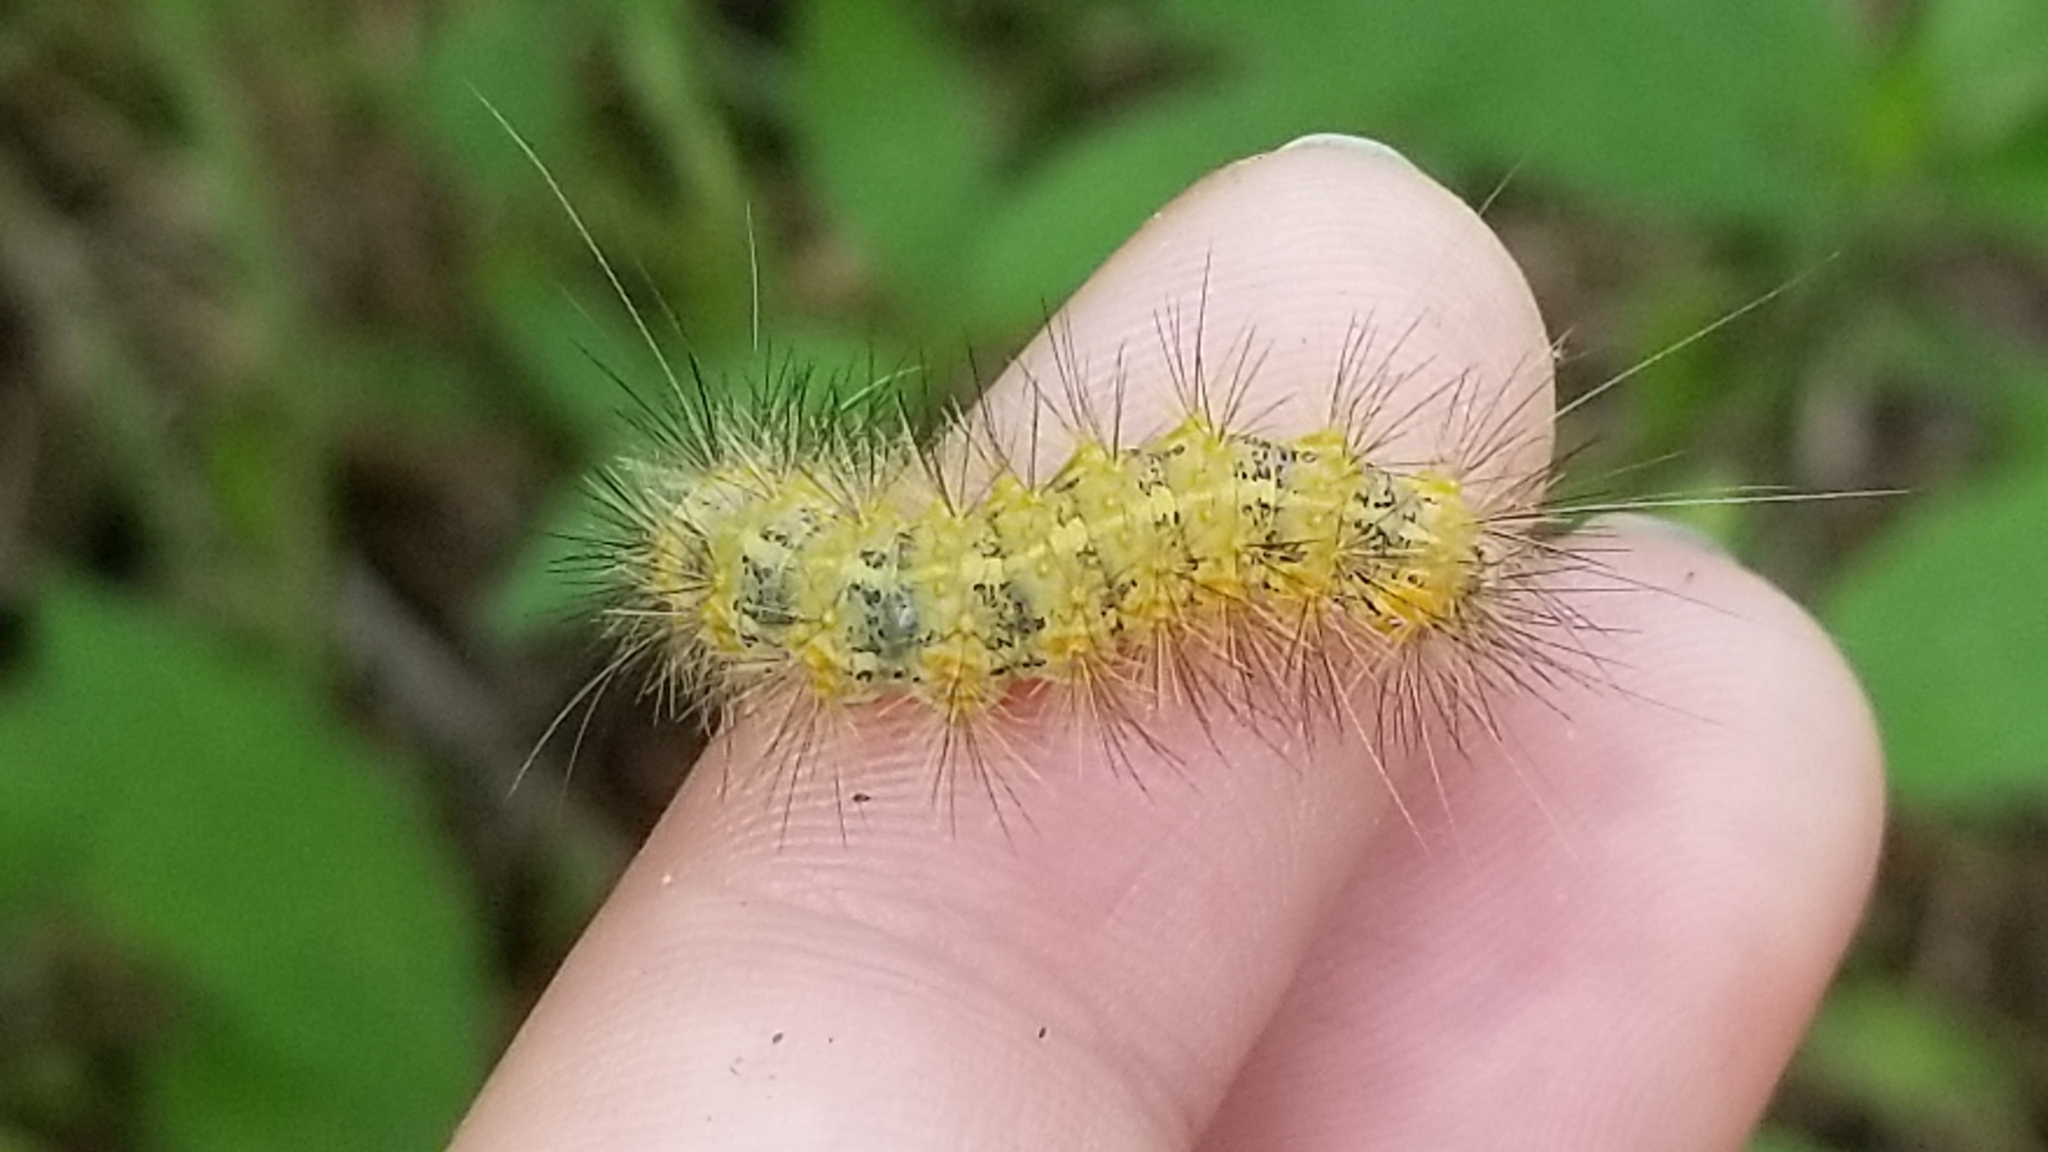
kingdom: Animalia
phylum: Arthropoda
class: Insecta
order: Lepidoptera
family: Erebidae
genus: Estigmene
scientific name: Estigmene acrea
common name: Salt marsh moth
